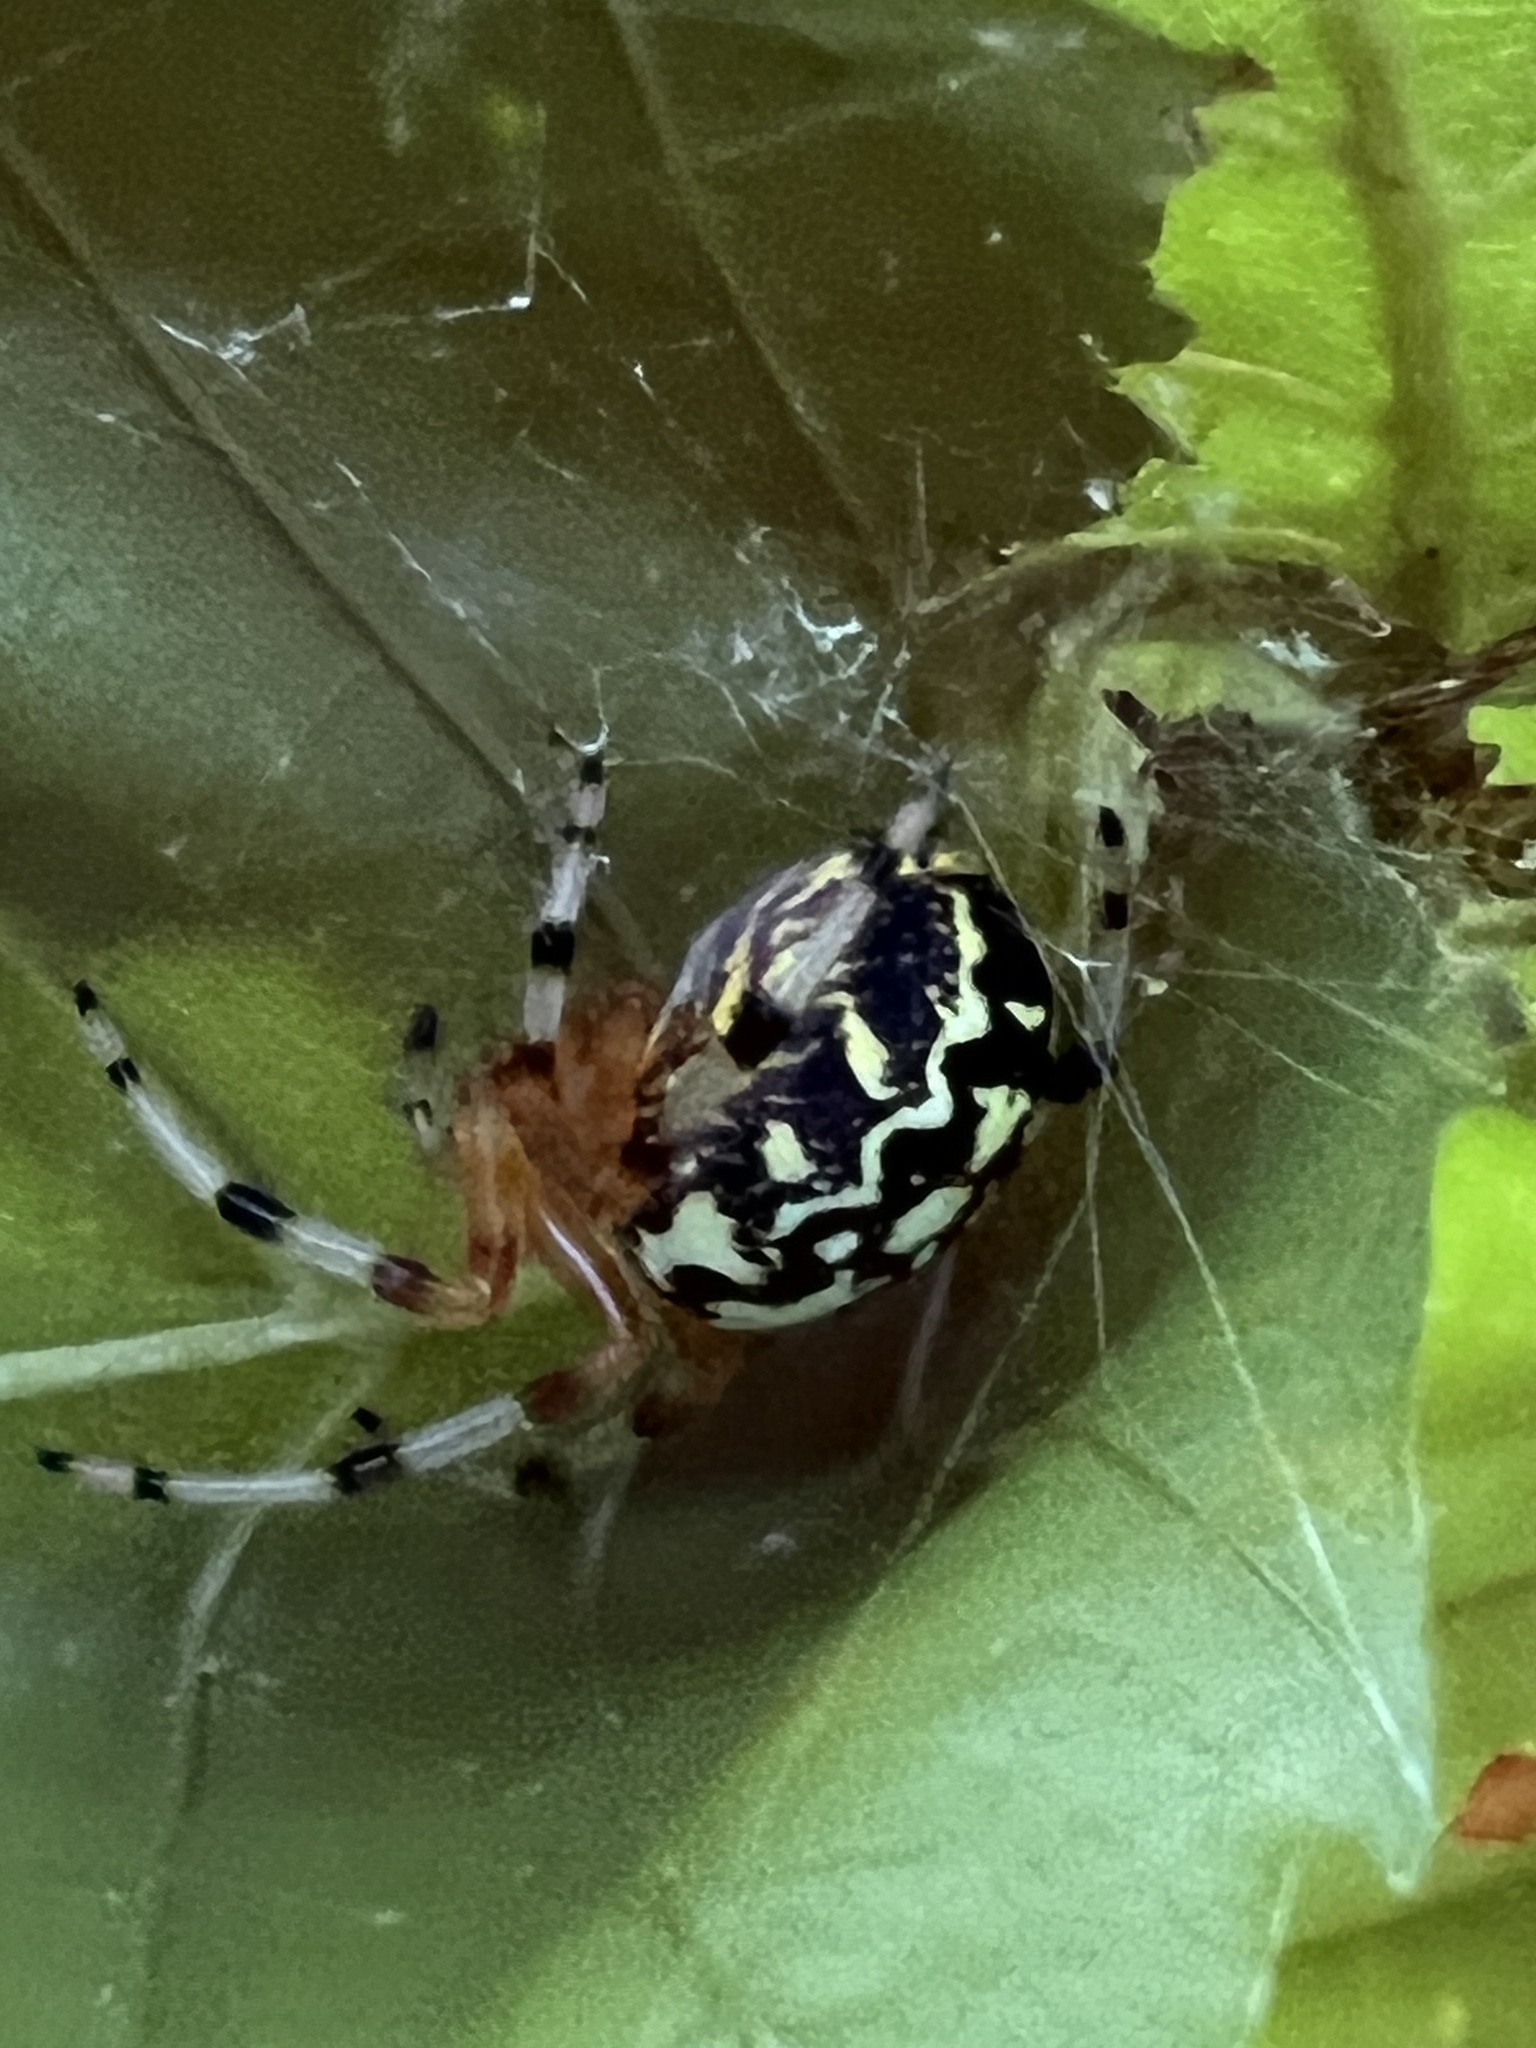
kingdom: Animalia
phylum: Arthropoda
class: Arachnida
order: Araneae
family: Araneidae
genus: Araneus
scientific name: Araneus marmoreus
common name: Marbled orbweaver
